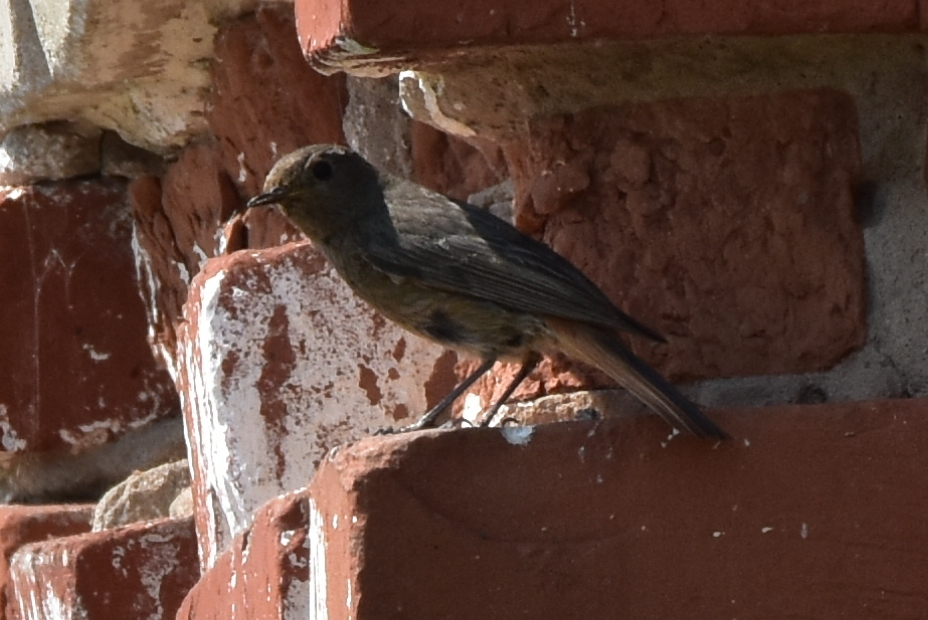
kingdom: Animalia
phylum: Chordata
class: Aves
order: Passeriformes
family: Muscicapidae
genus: Phoenicurus
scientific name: Phoenicurus ochruros
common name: Black redstart
